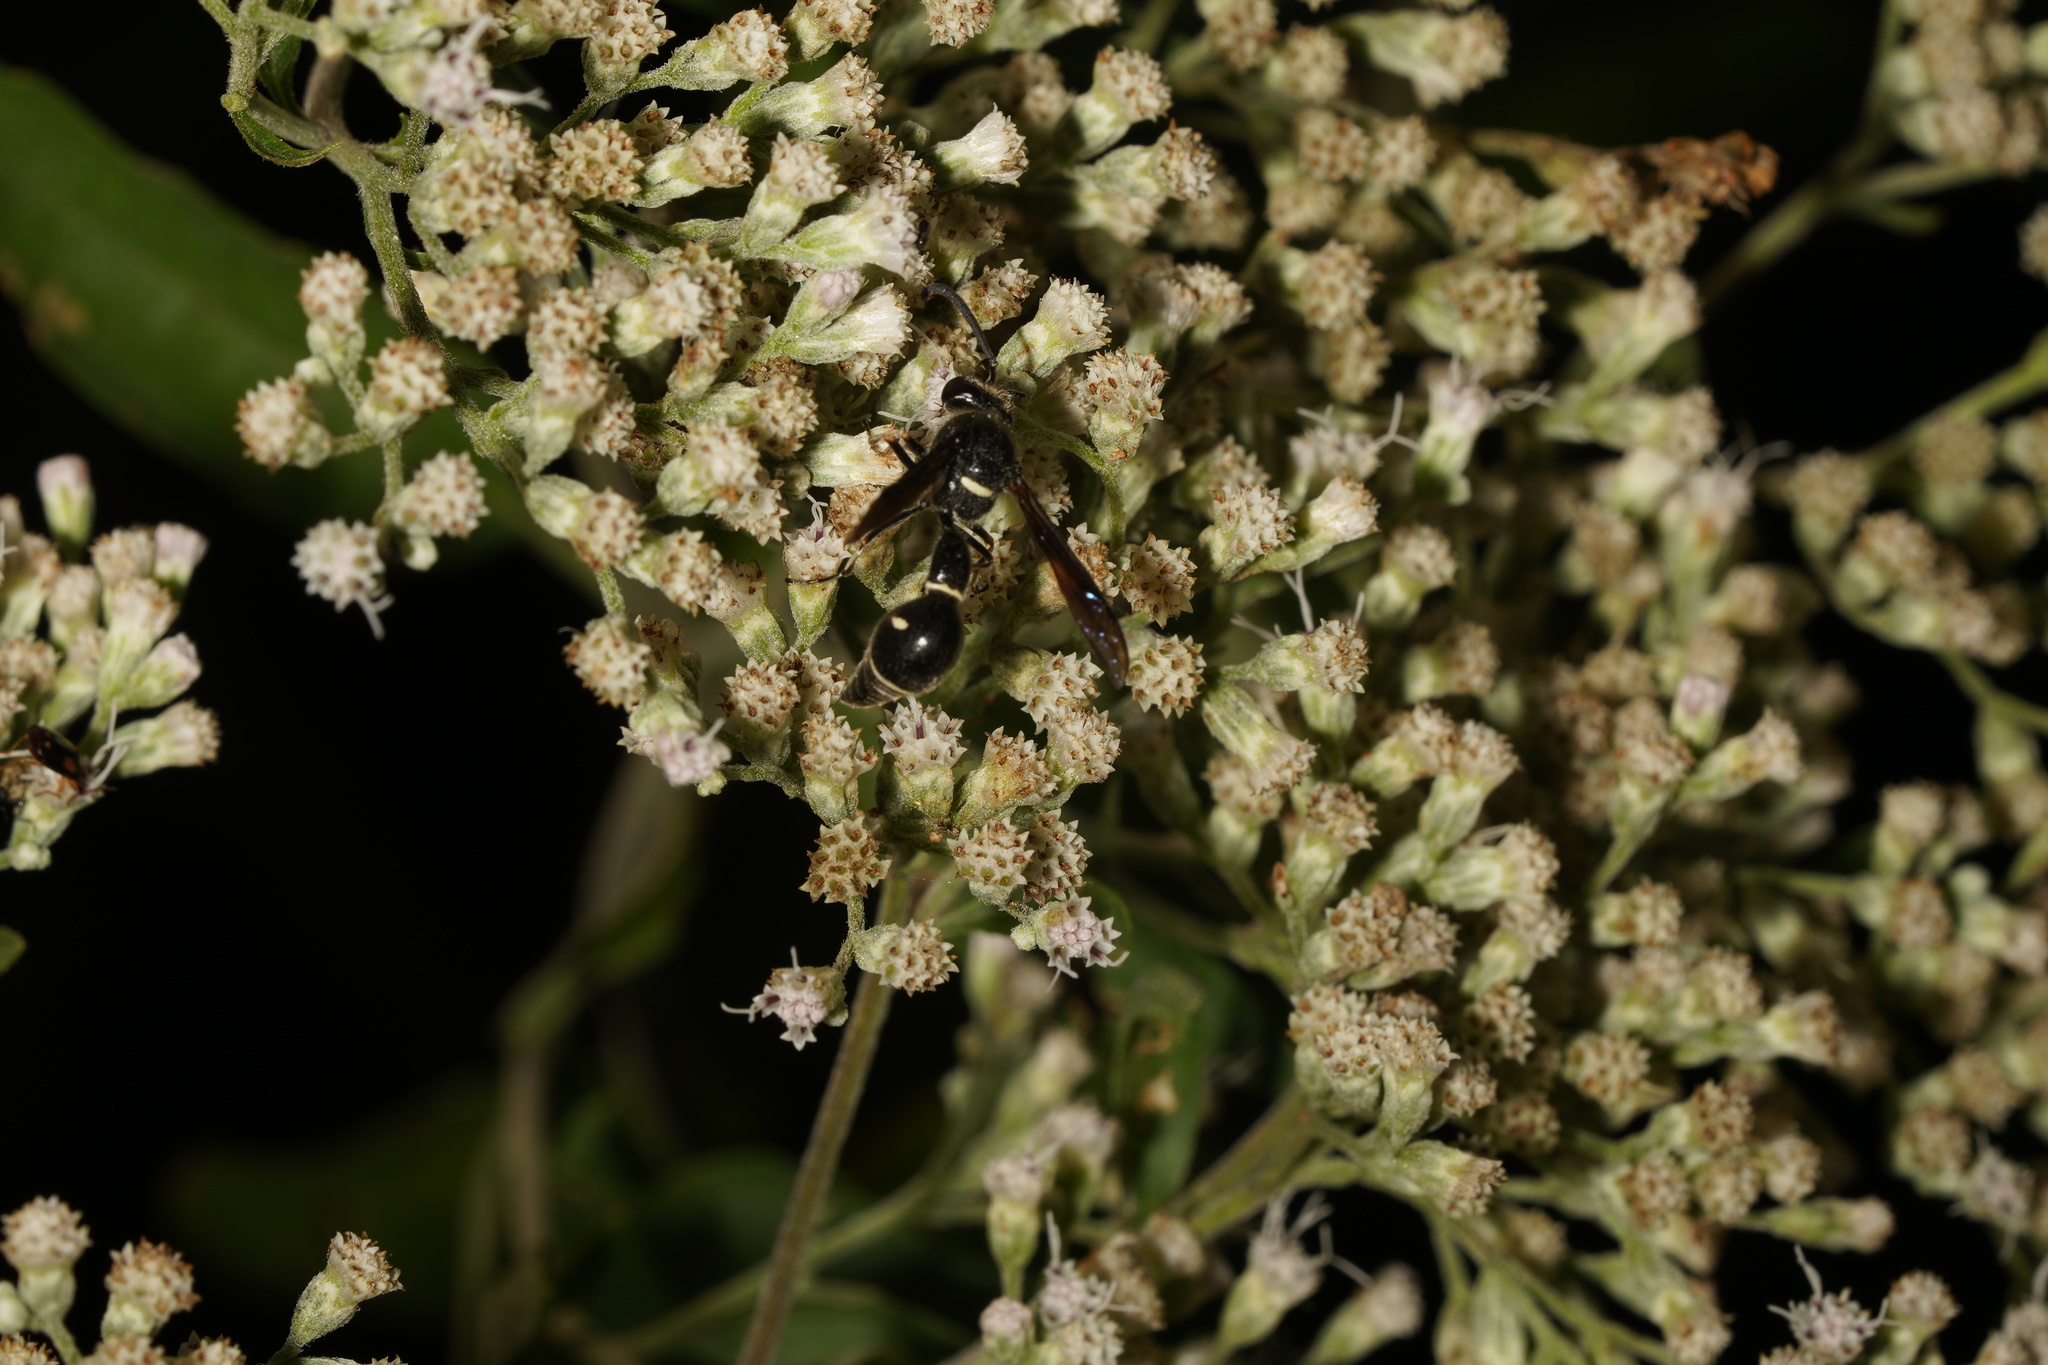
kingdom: Animalia
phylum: Arthropoda
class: Insecta
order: Hymenoptera
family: Vespidae
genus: Eumenes
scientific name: Eumenes fraternus
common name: Fraternal potter wasp
